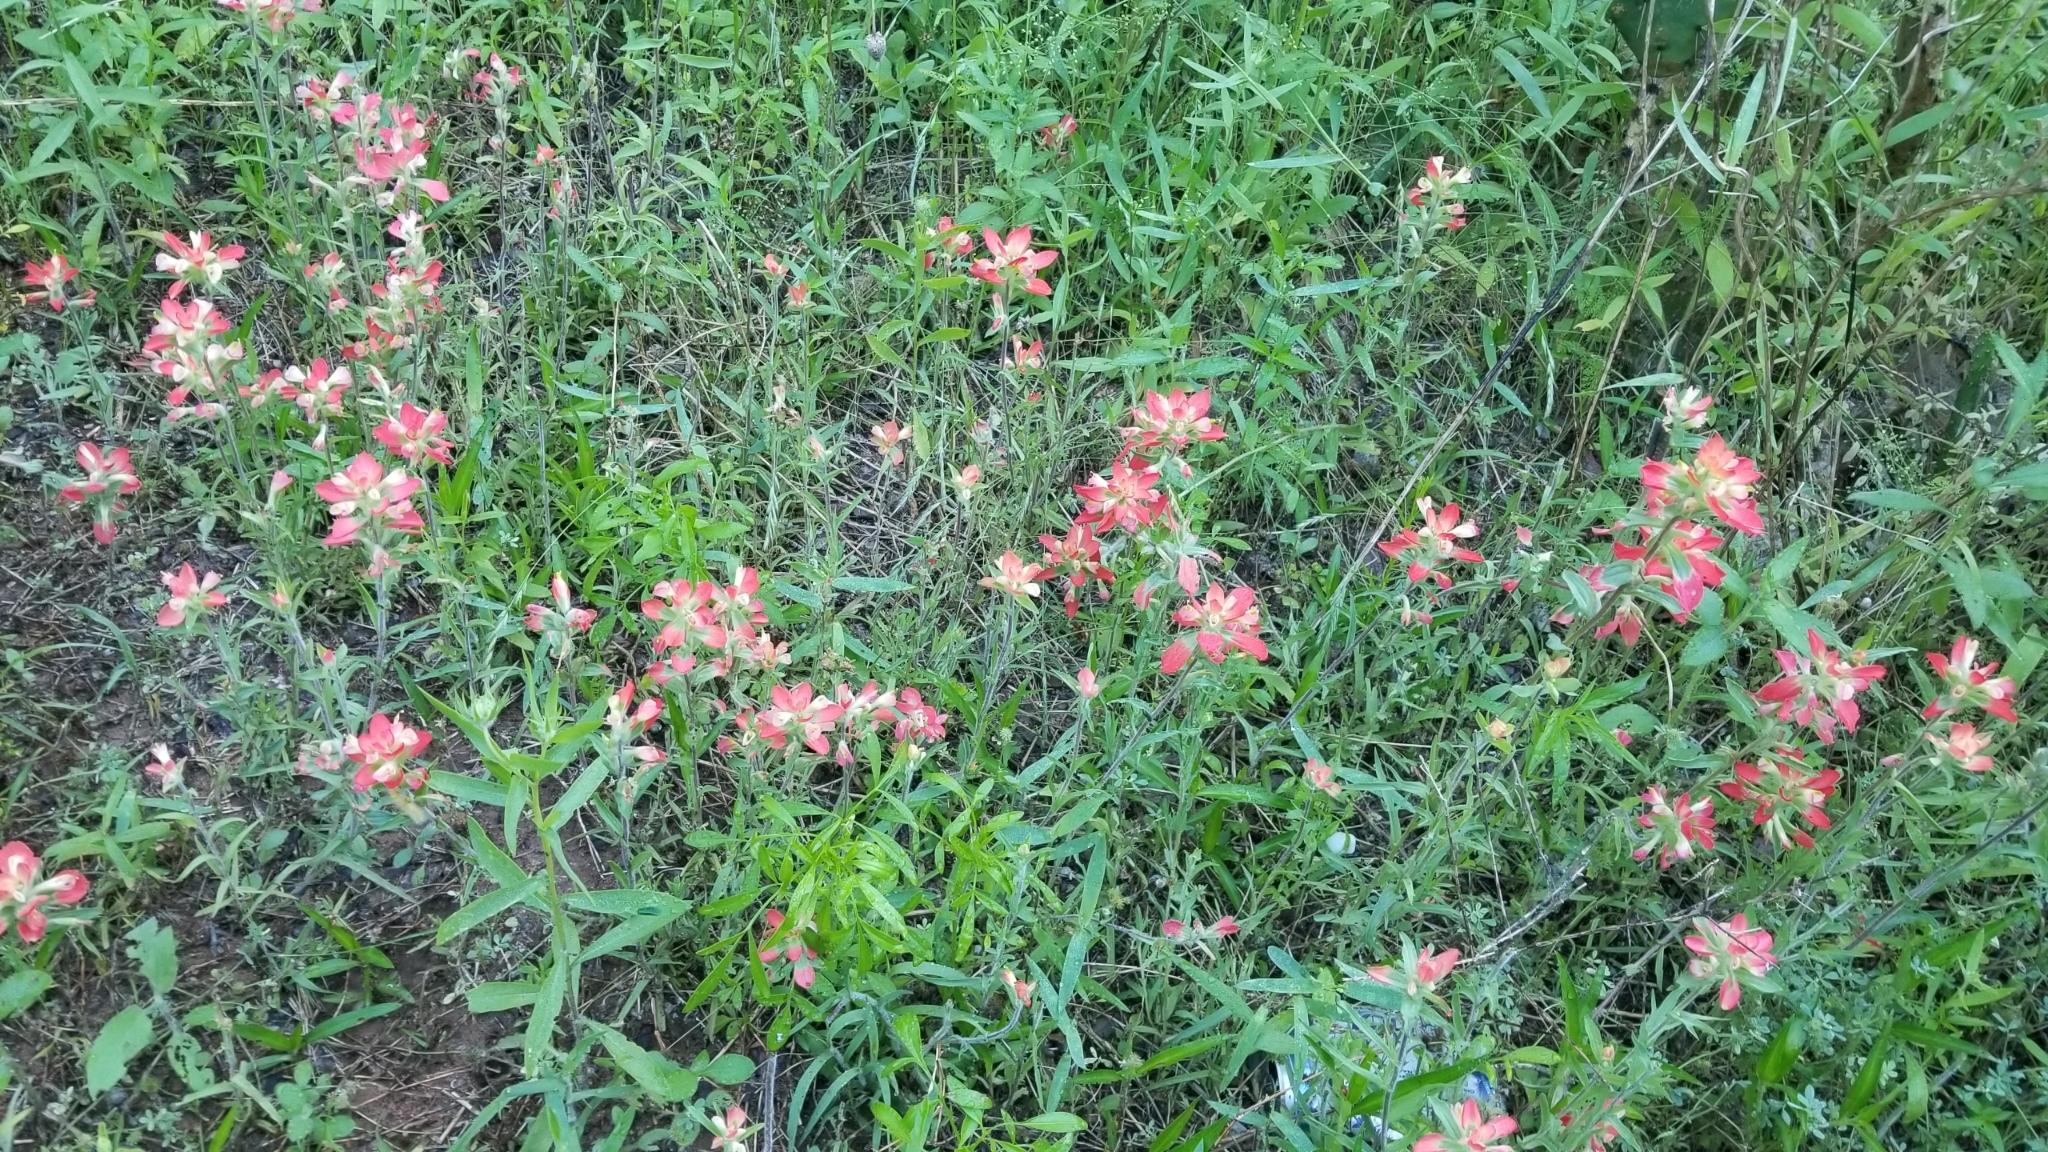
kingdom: Plantae
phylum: Tracheophyta
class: Magnoliopsida
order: Lamiales
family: Orobanchaceae
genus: Castilleja
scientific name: Castilleja indivisa
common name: Texas paintbrush
